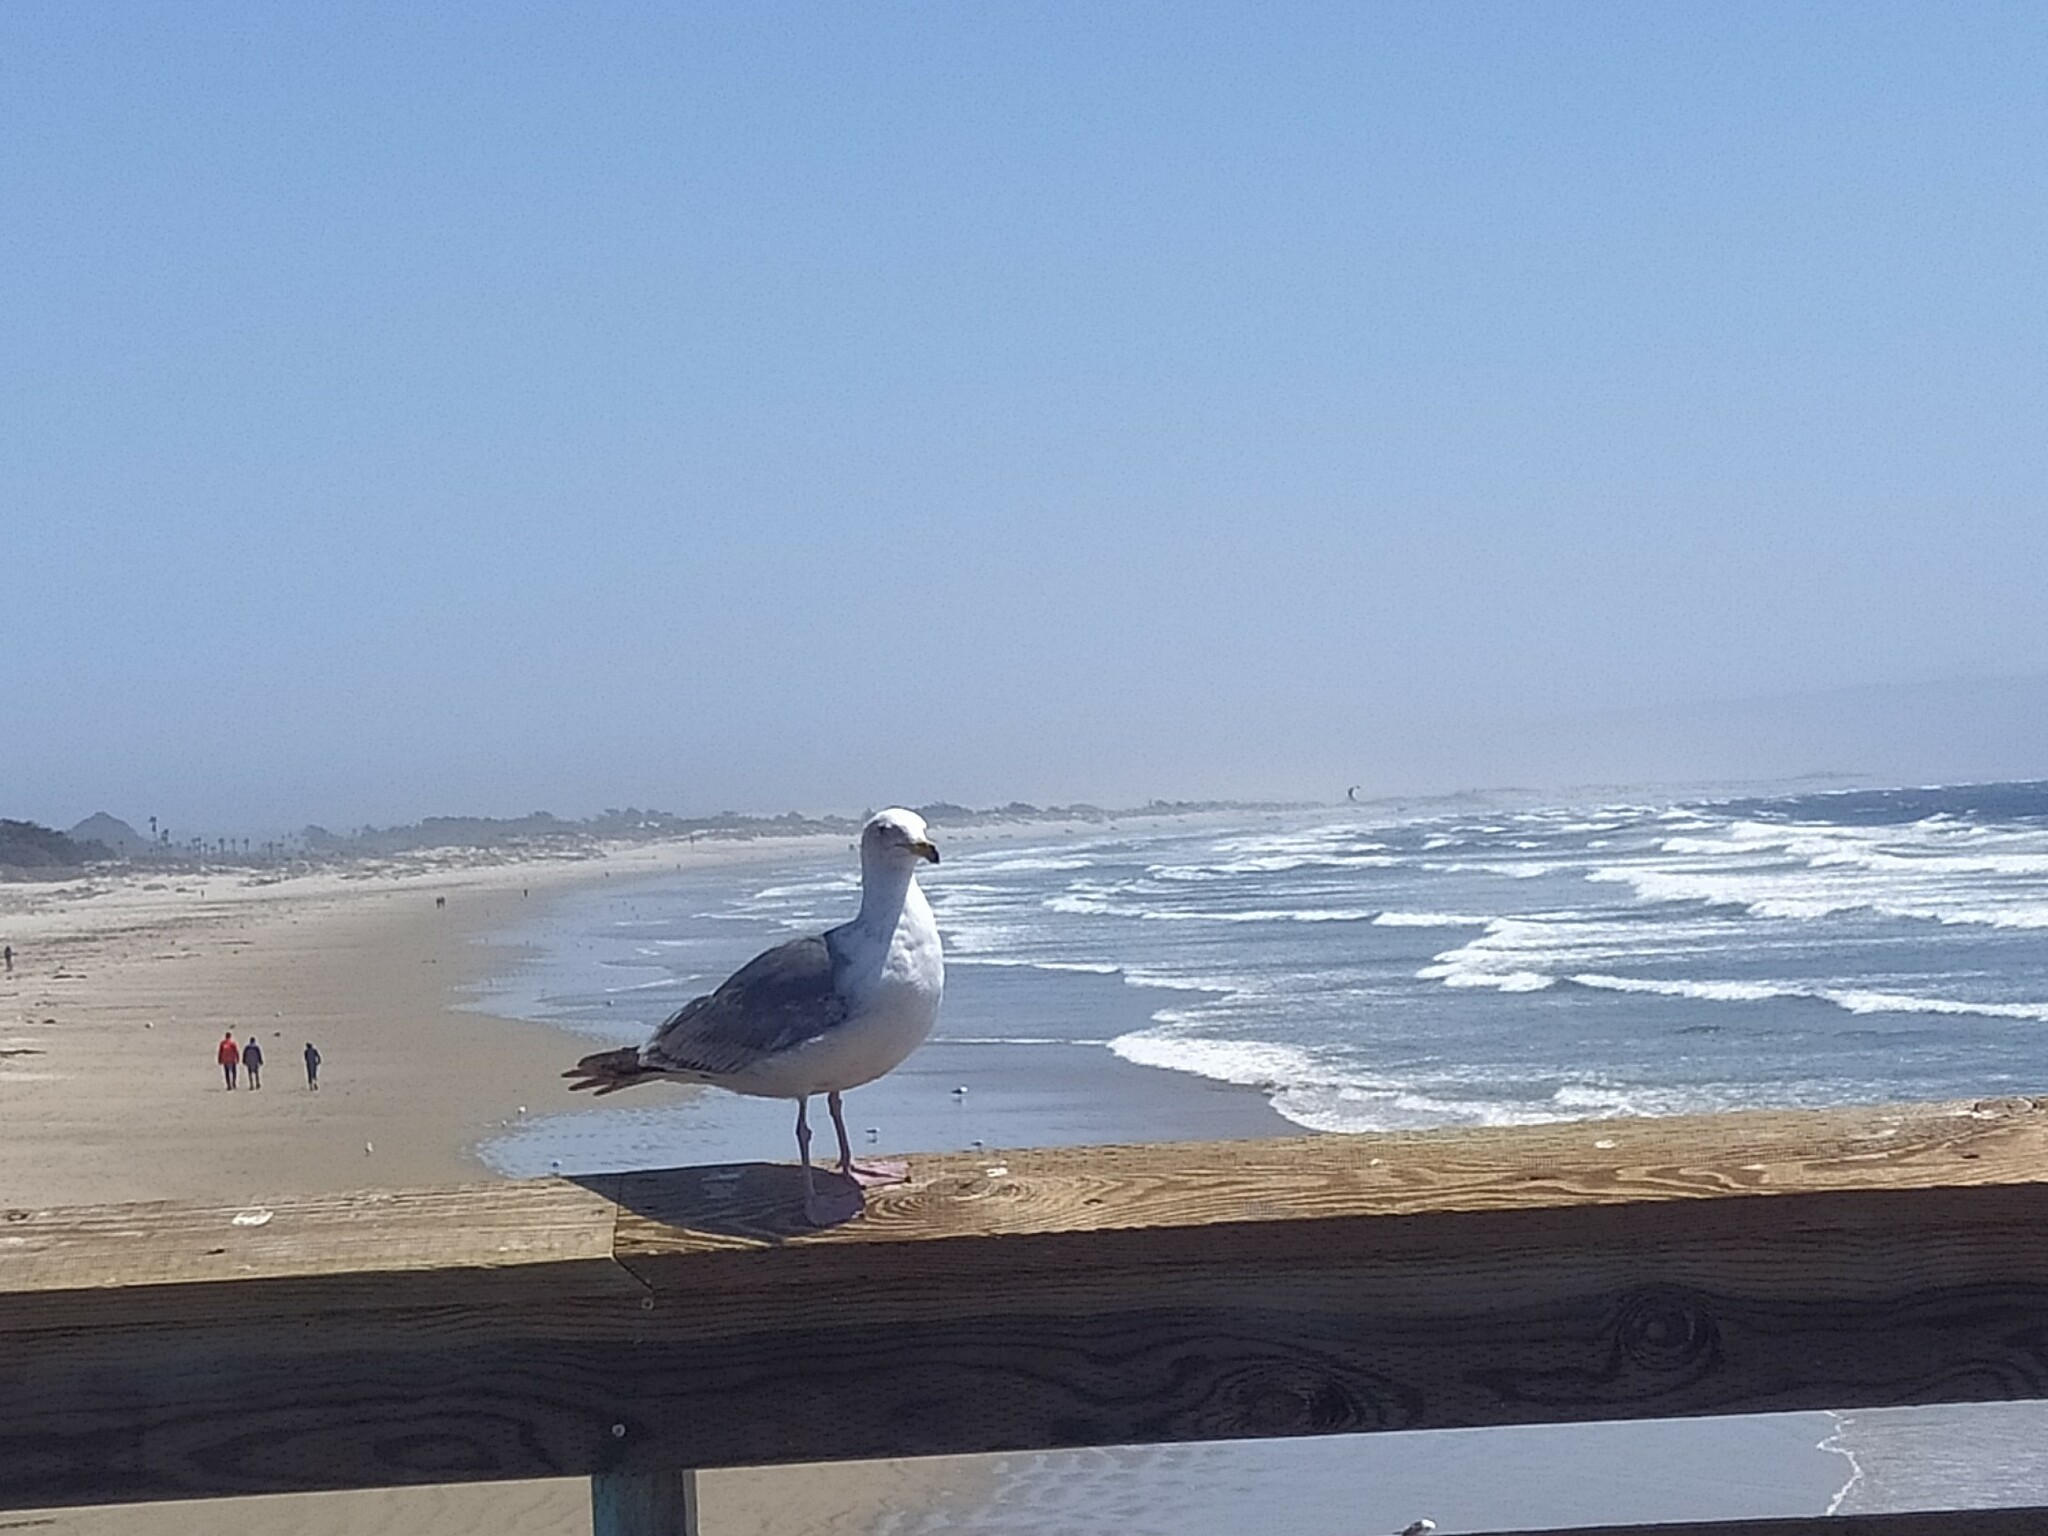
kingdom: Animalia
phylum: Chordata
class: Aves
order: Charadriiformes
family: Laridae
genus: Larus
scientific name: Larus occidentalis
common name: Western gull
